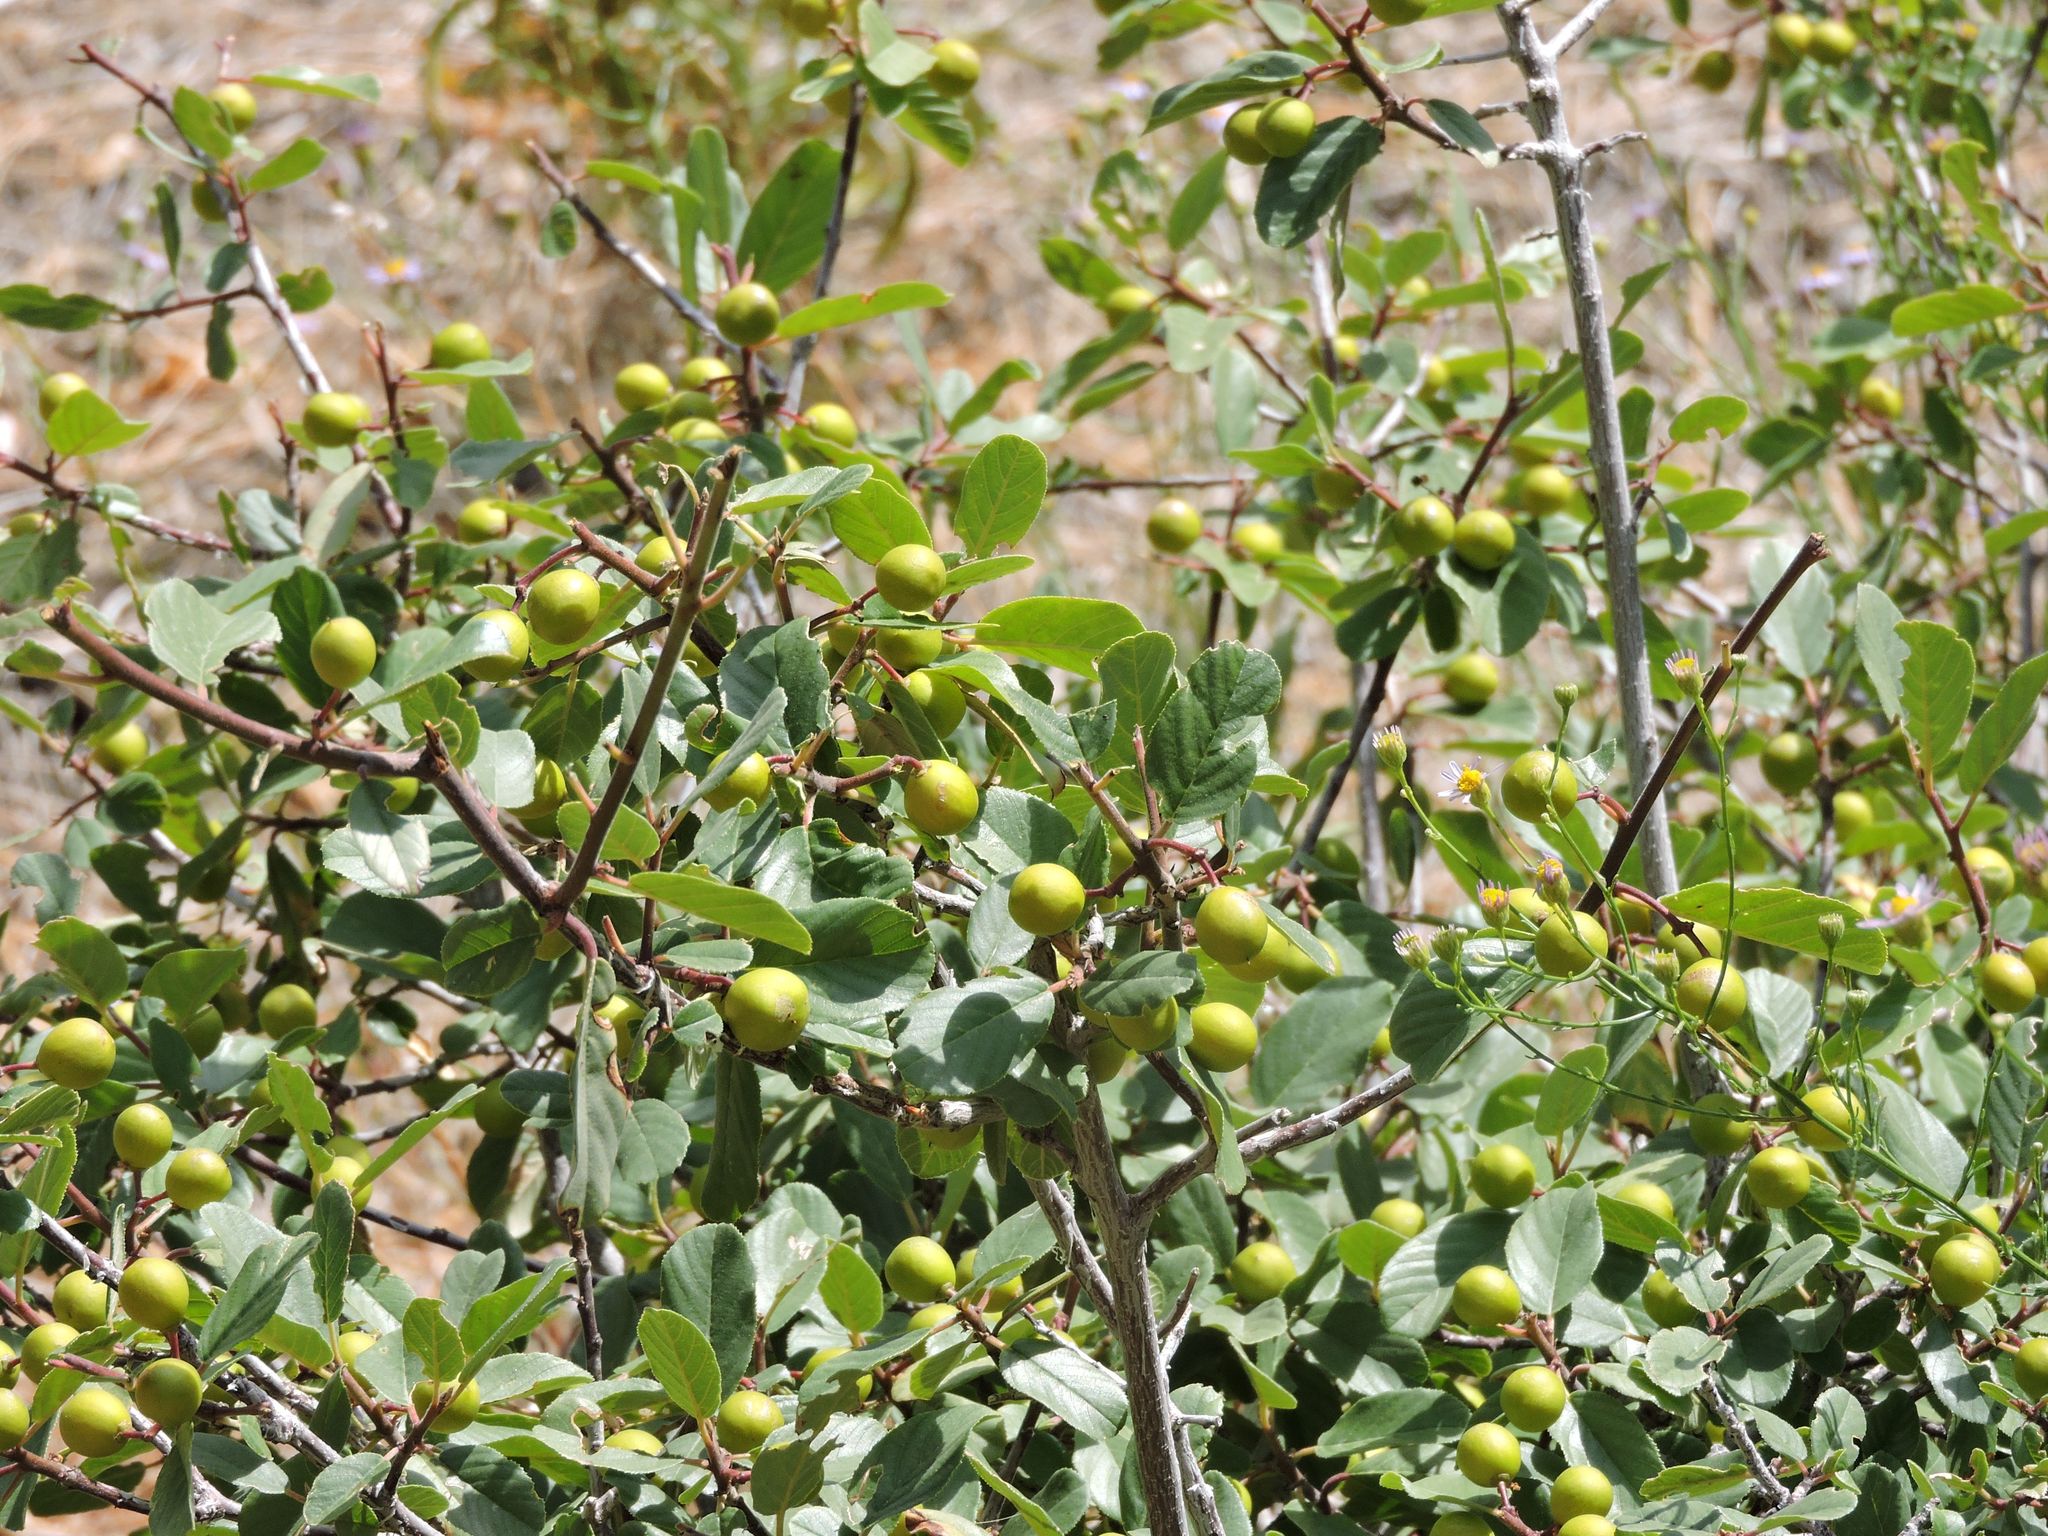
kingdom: Plantae
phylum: Tracheophyta
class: Magnoliopsida
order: Rosales
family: Rhamnaceae
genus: Frangula
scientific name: Frangula californica
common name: California buckthorn
